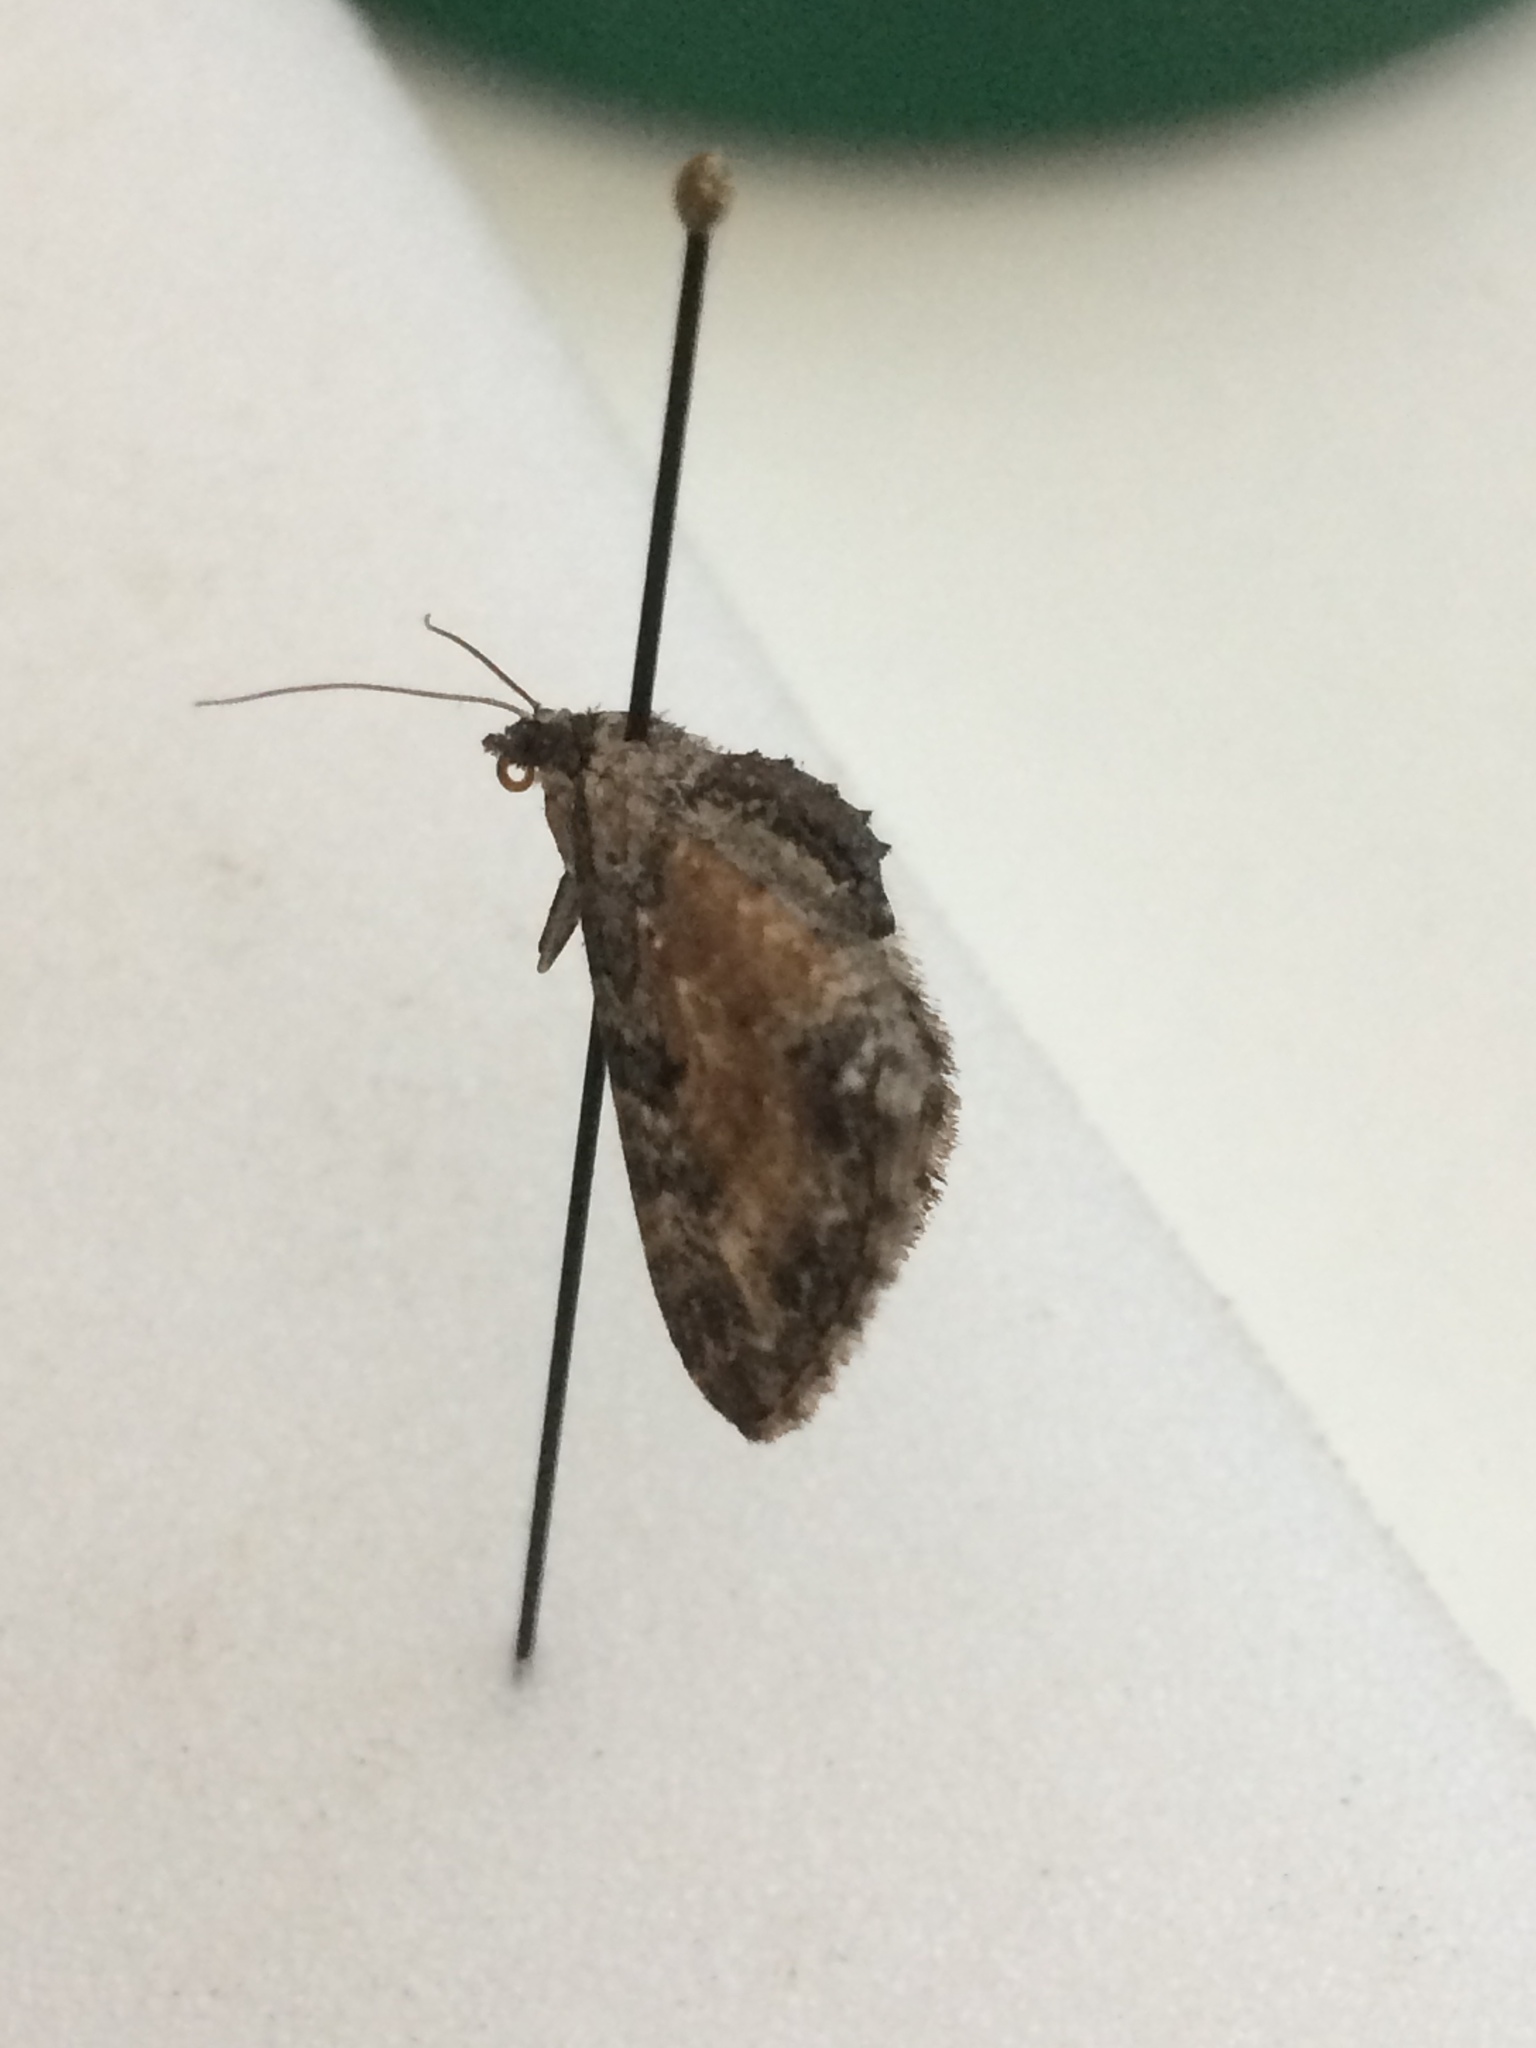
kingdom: Animalia
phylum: Arthropoda
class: Insecta
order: Lepidoptera
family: Geometridae
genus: Eupithecia
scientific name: Eupithecia icterata
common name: Tawny speckled pug
